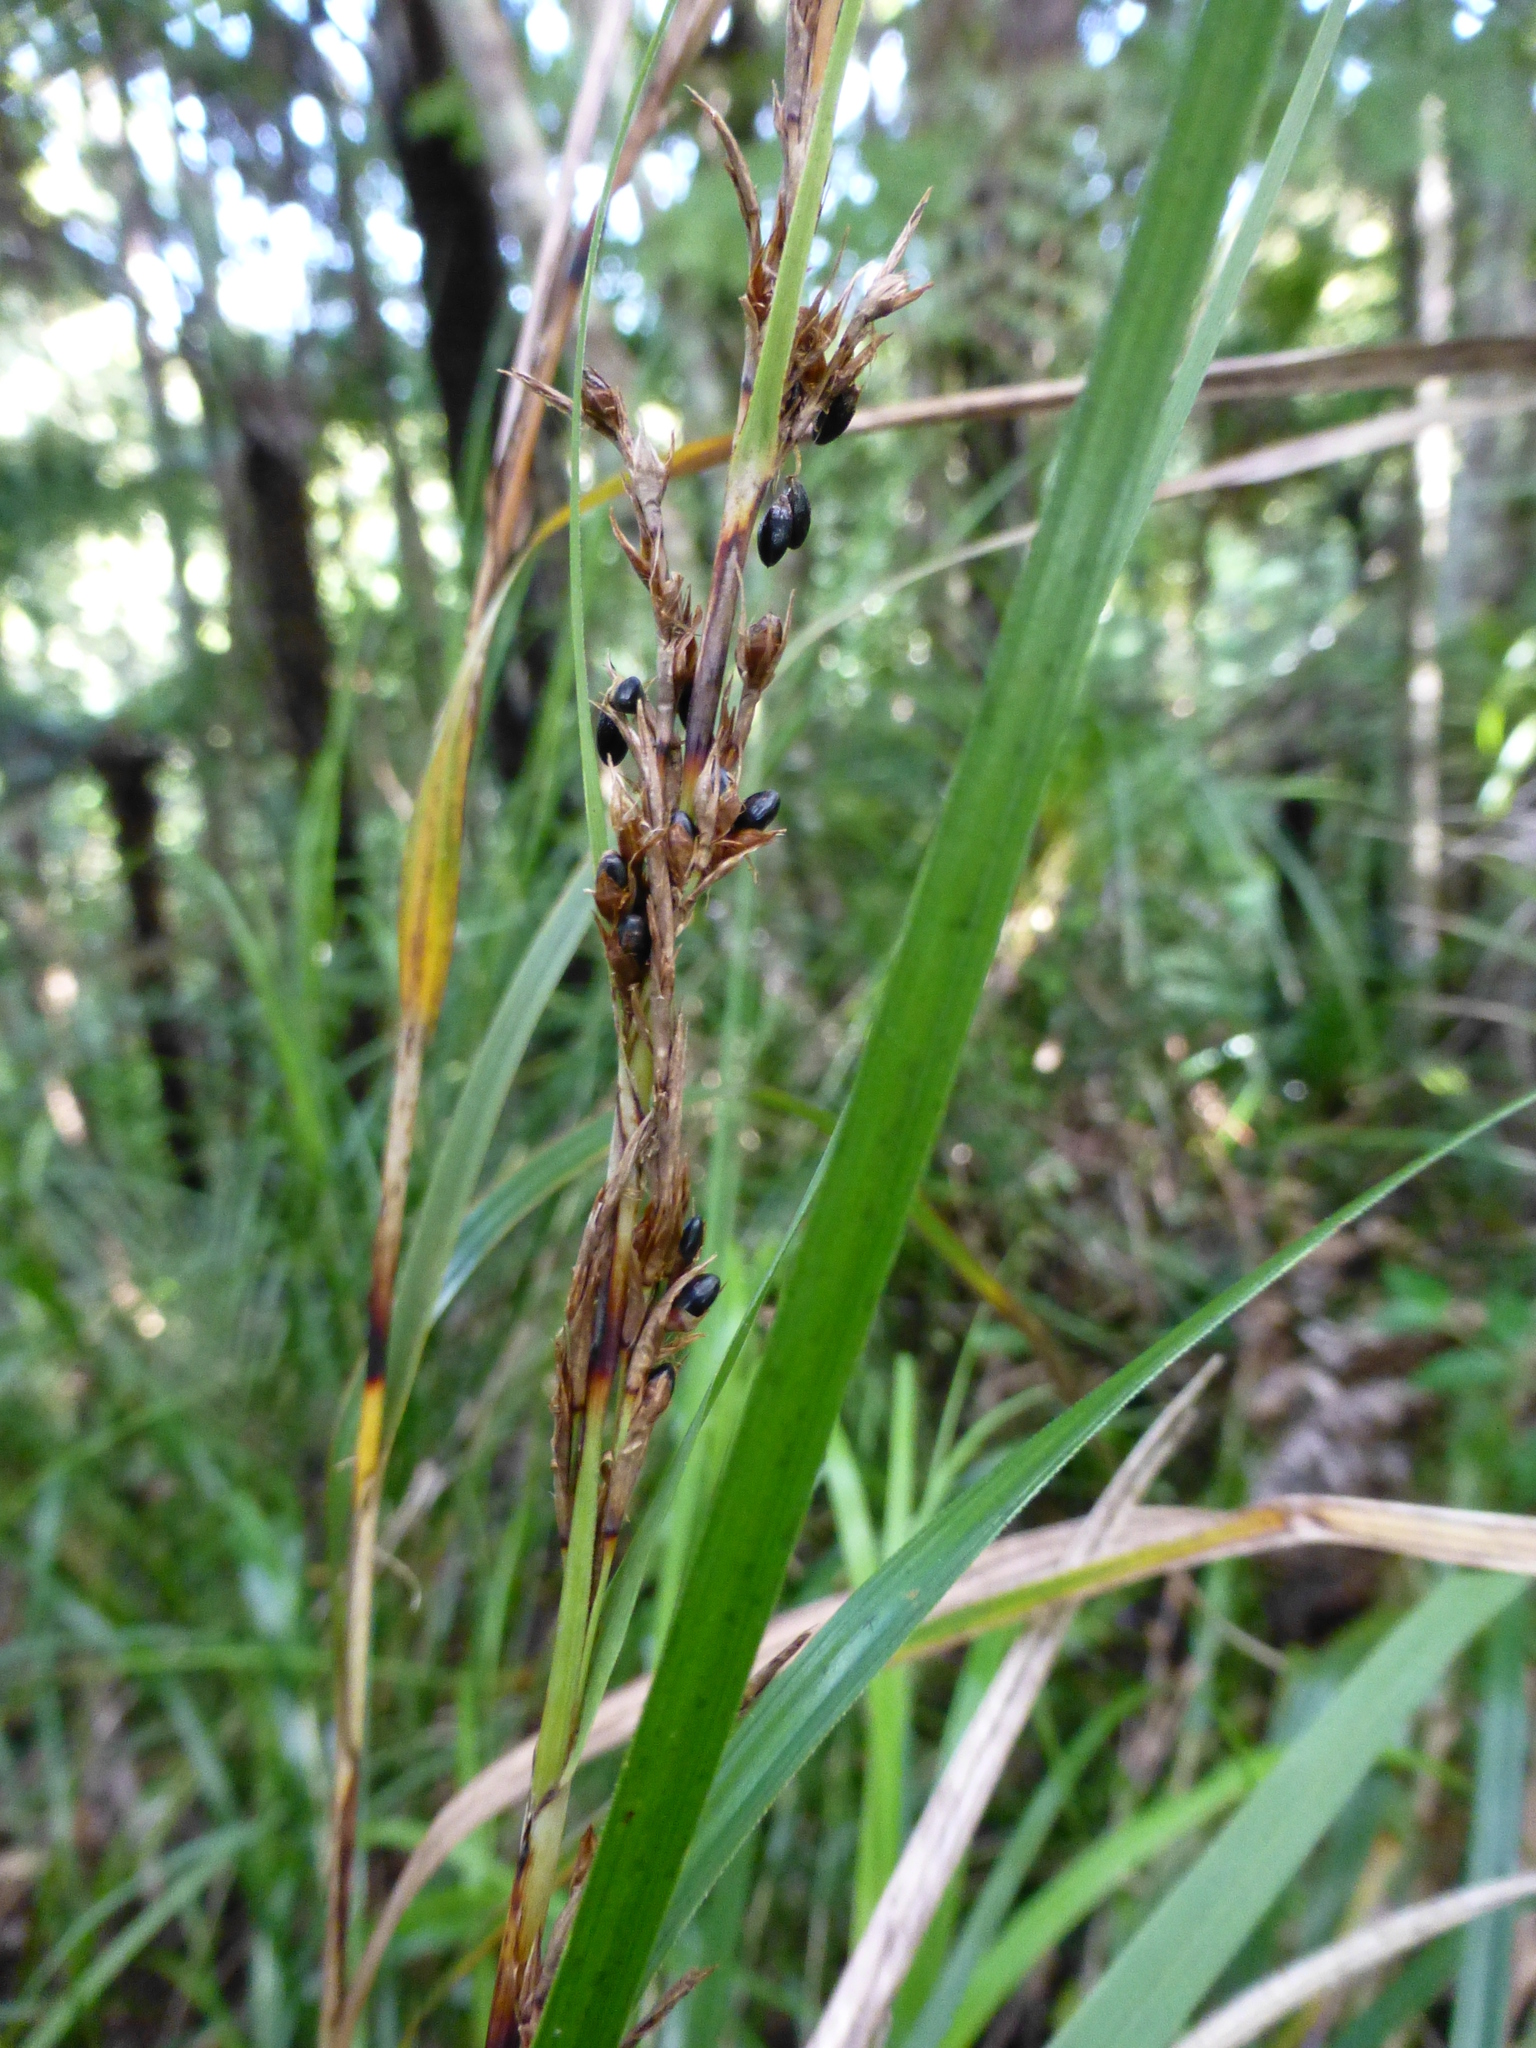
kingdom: Plantae
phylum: Tracheophyta
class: Liliopsida
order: Poales
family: Cyperaceae
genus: Gahnia
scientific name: Gahnia lacera
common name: Sawsedge
